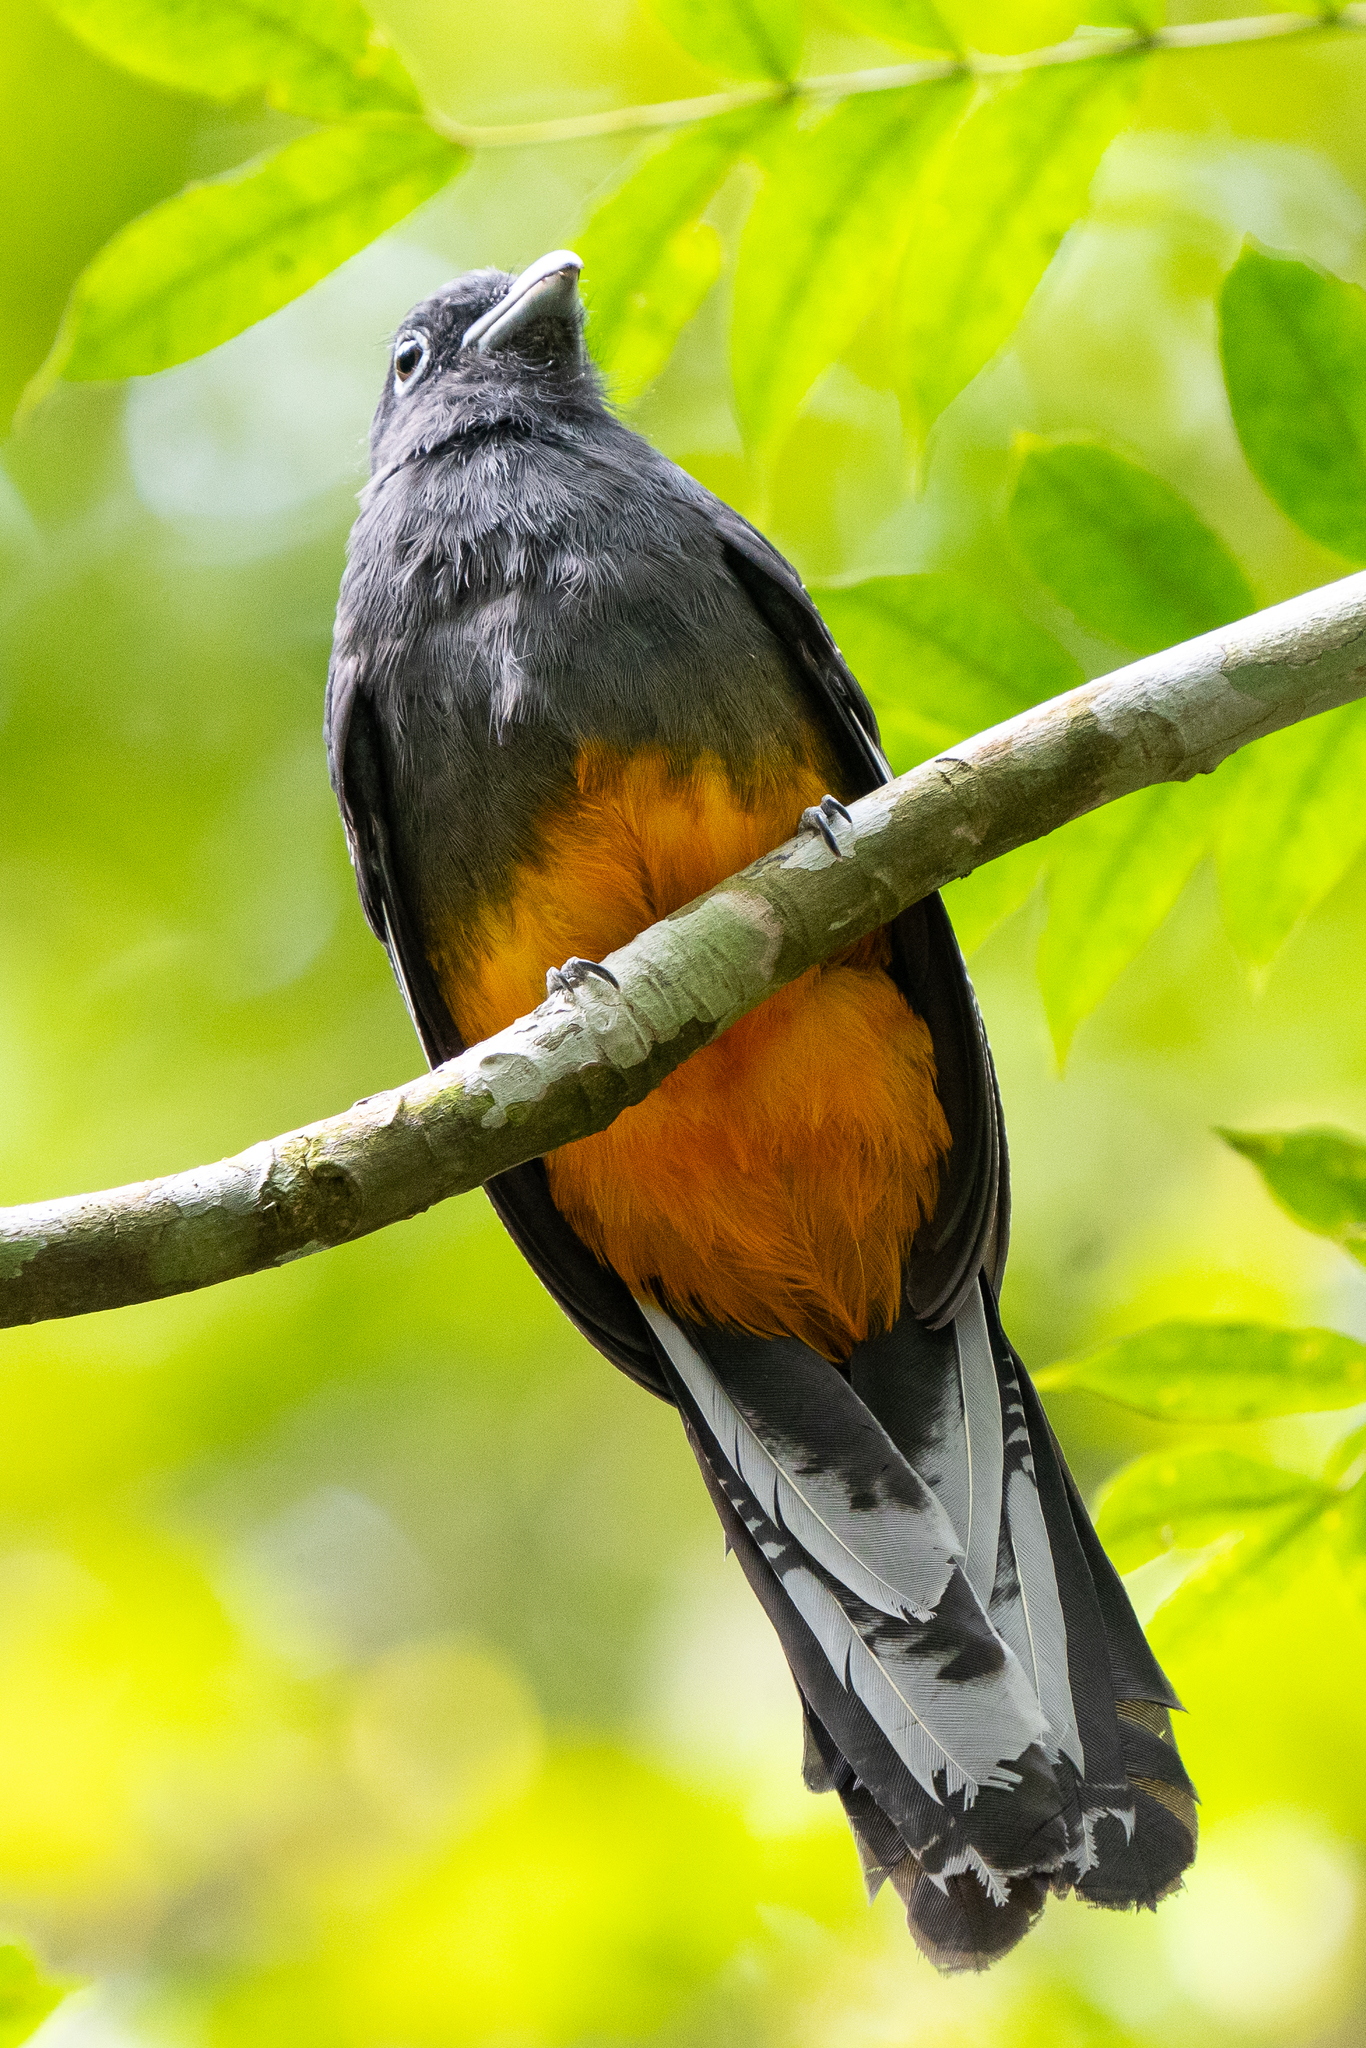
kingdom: Animalia
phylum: Chordata
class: Aves
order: Trogoniformes
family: Trogonidae
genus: Trogon
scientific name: Trogon chionurus
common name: White-tailed trogon
